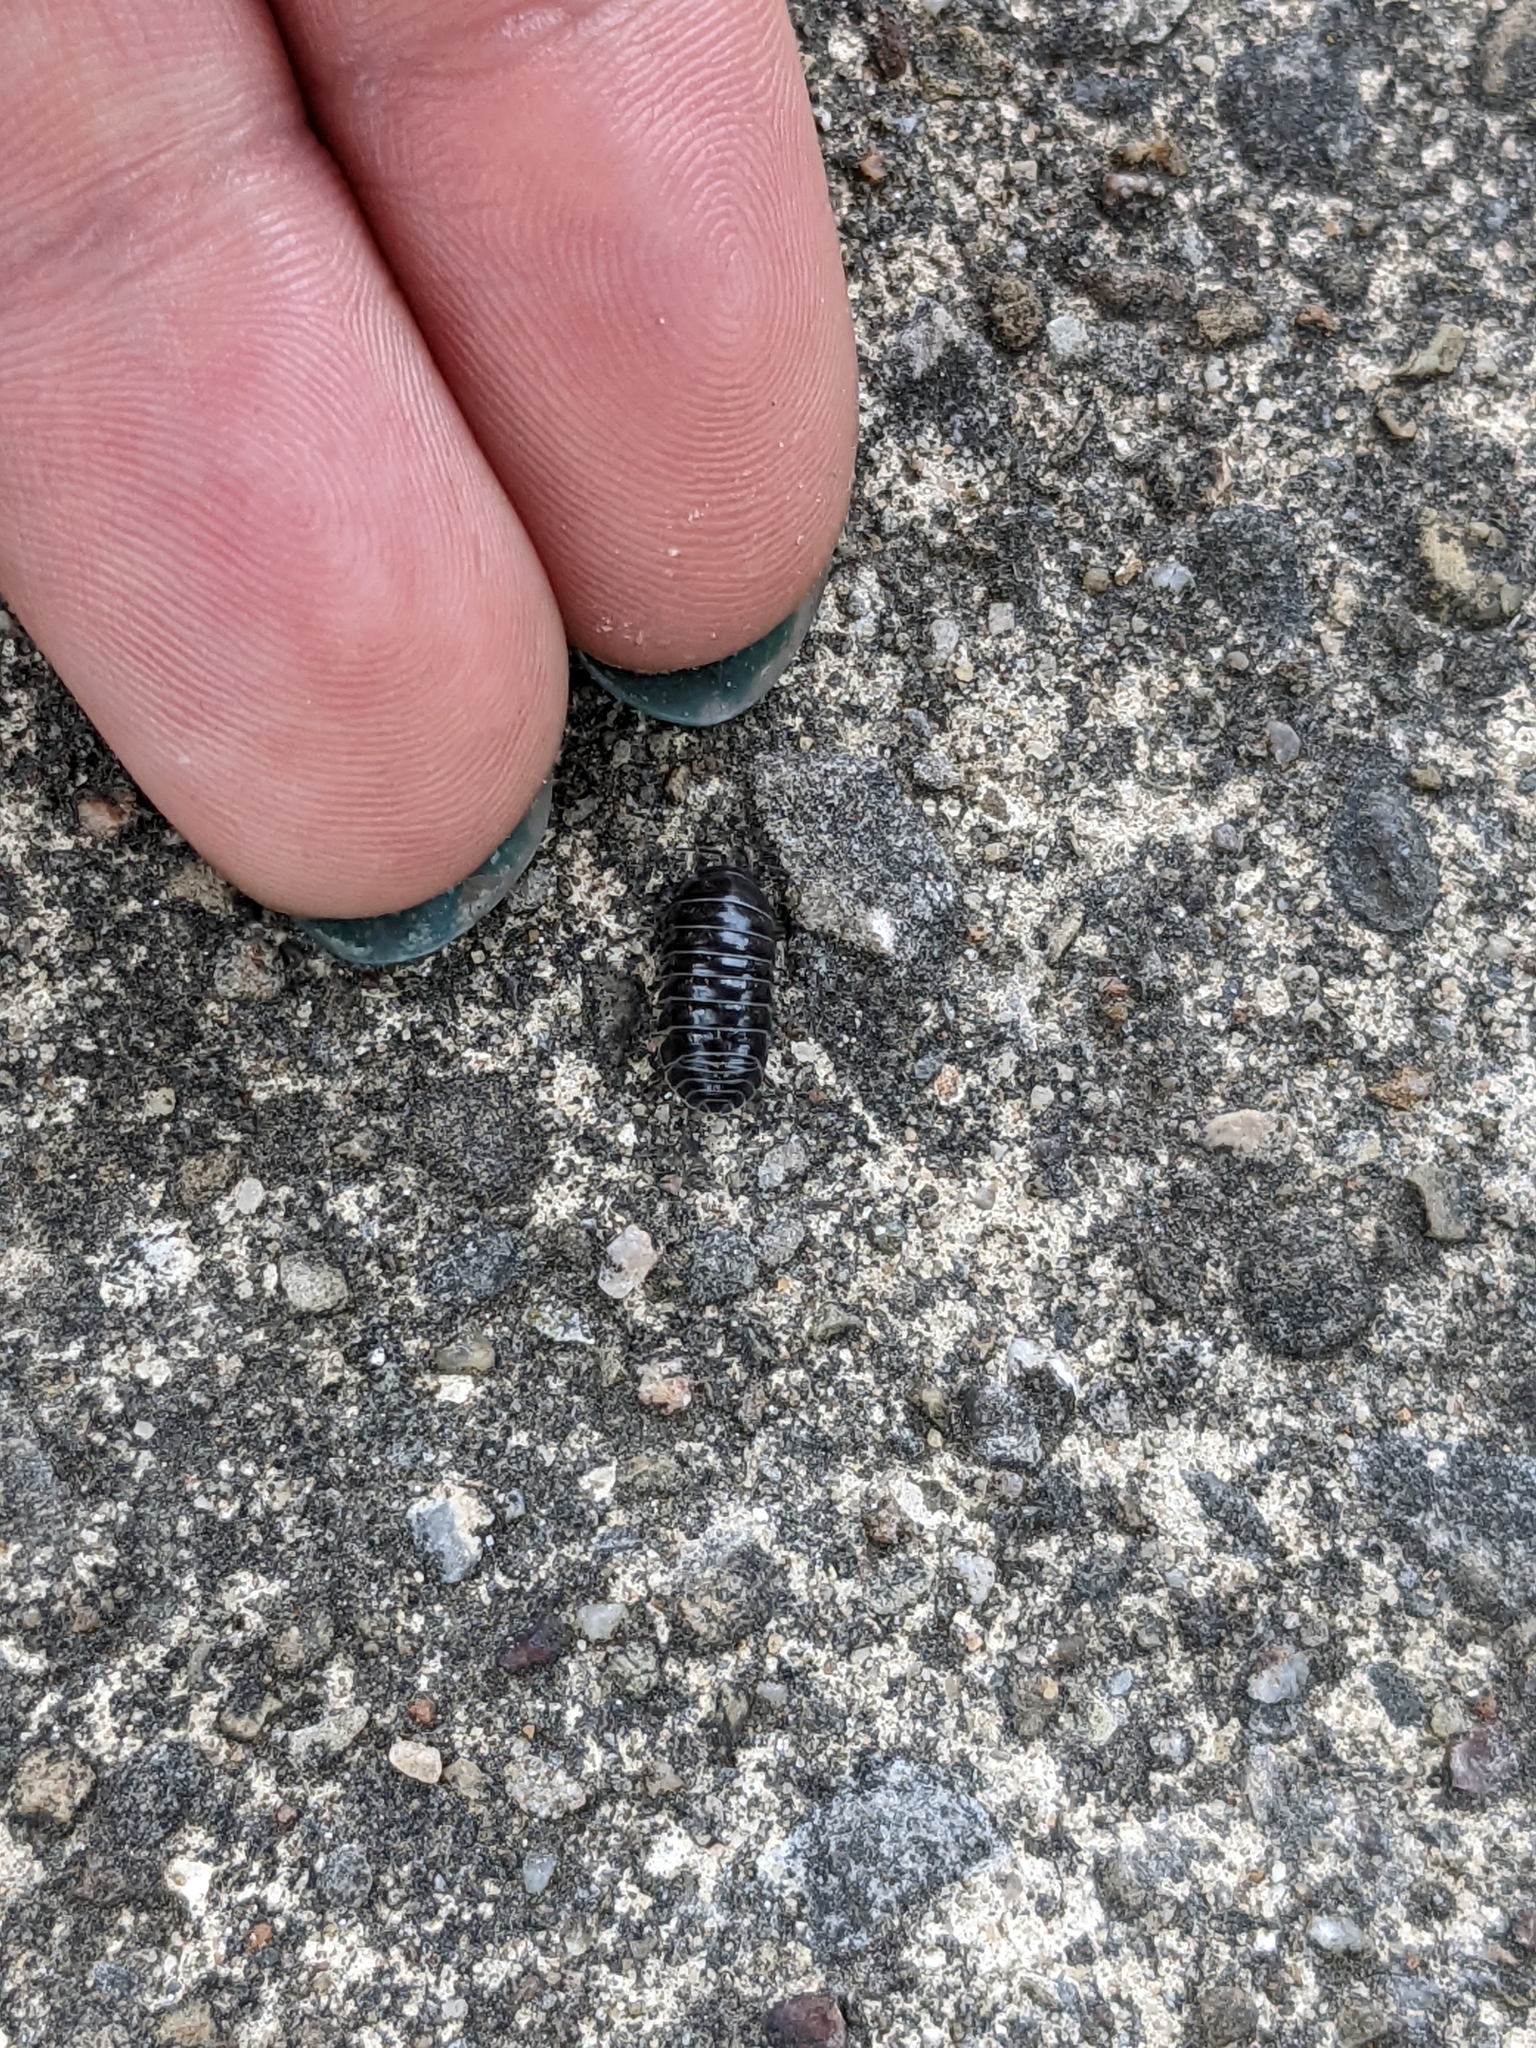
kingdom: Animalia
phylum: Arthropoda
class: Malacostraca
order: Isopoda
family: Armadillidiidae
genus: Armadillidium
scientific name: Armadillidium vulgare
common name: Common pill woodlouse
